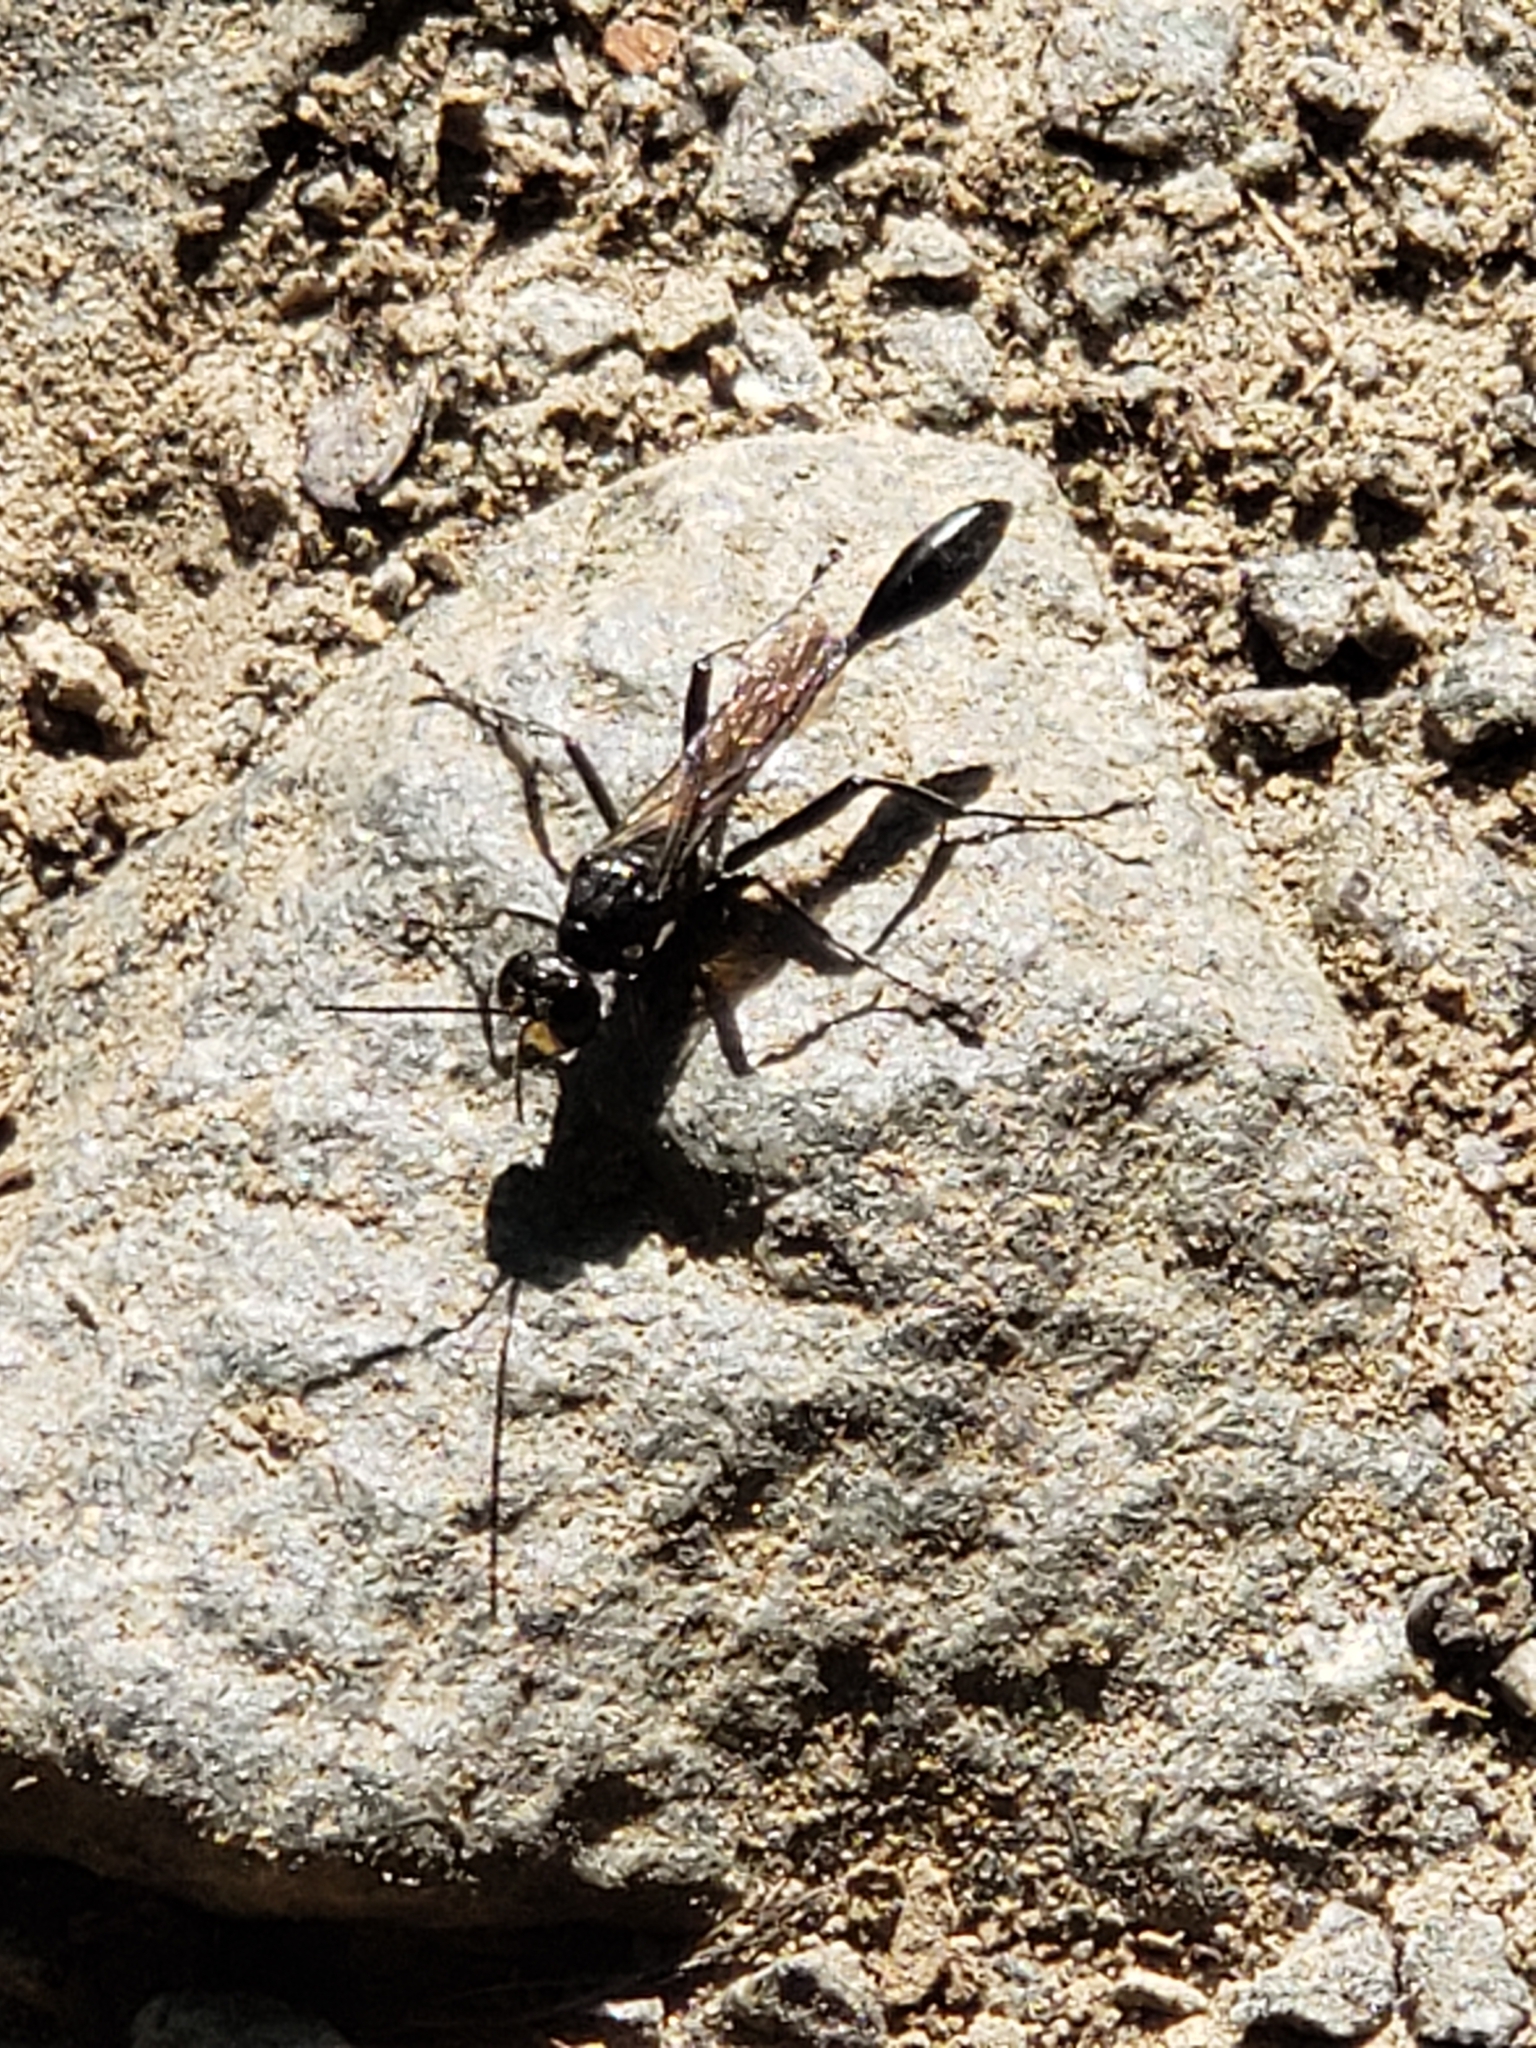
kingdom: Animalia
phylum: Arthropoda
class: Insecta
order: Hymenoptera
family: Sphecidae
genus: Eremnophila
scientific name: Eremnophila aureonotata
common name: Gold-marked thread-waisted wasp
